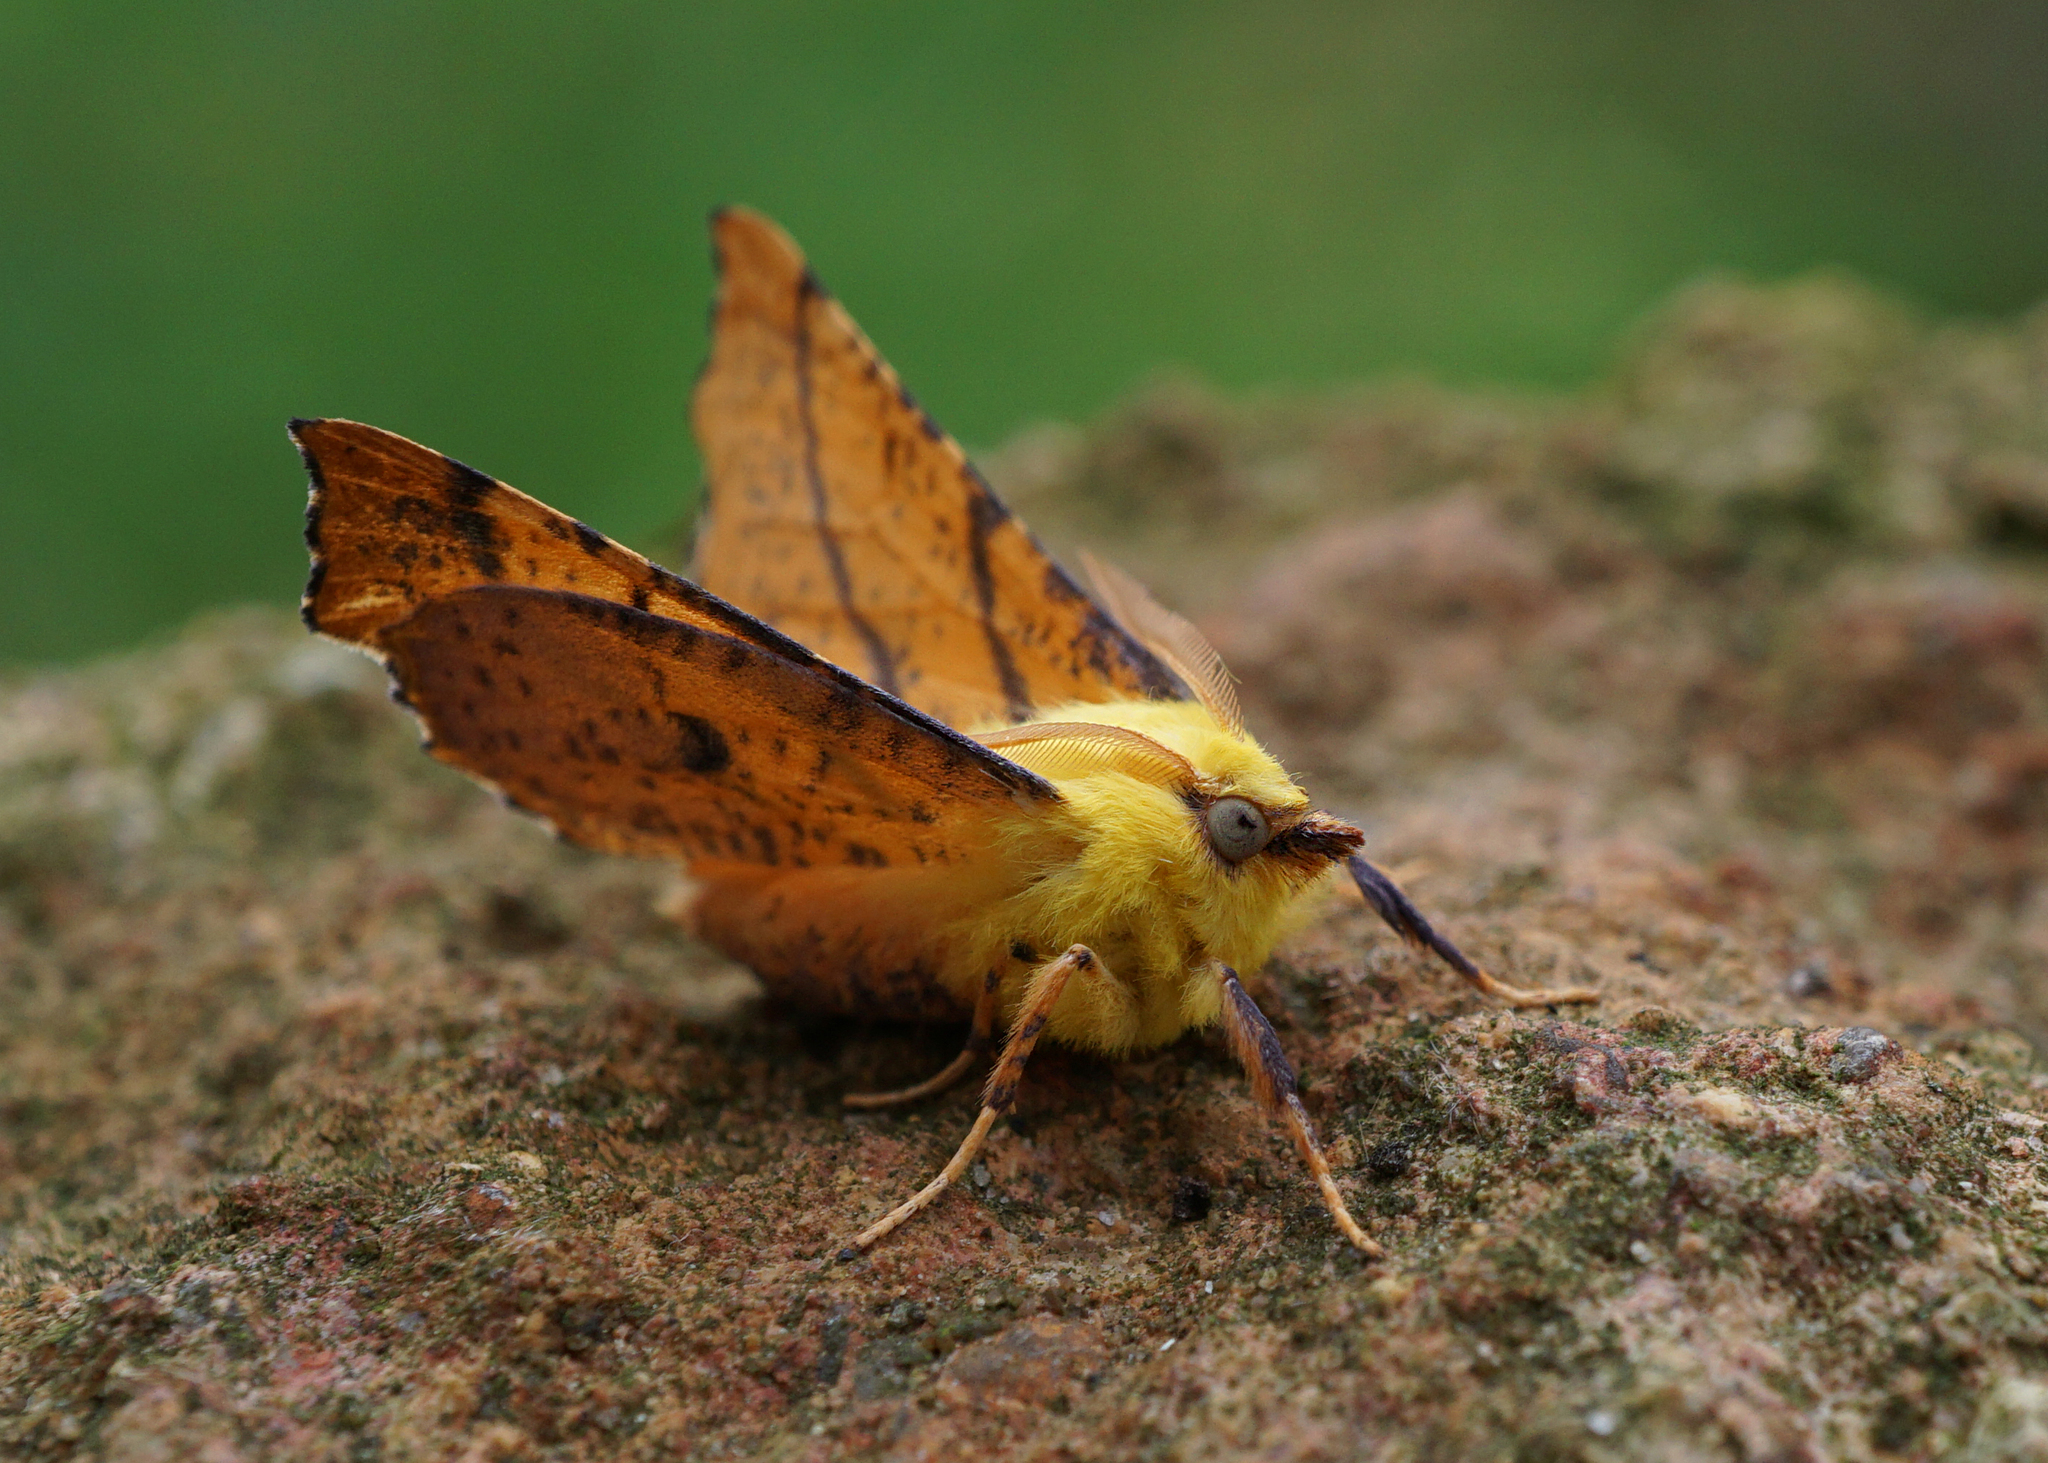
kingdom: Animalia
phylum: Arthropoda
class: Insecta
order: Lepidoptera
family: Geometridae
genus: Ennomos
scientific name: Ennomos alniaria
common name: Canary-shouldered thorn
